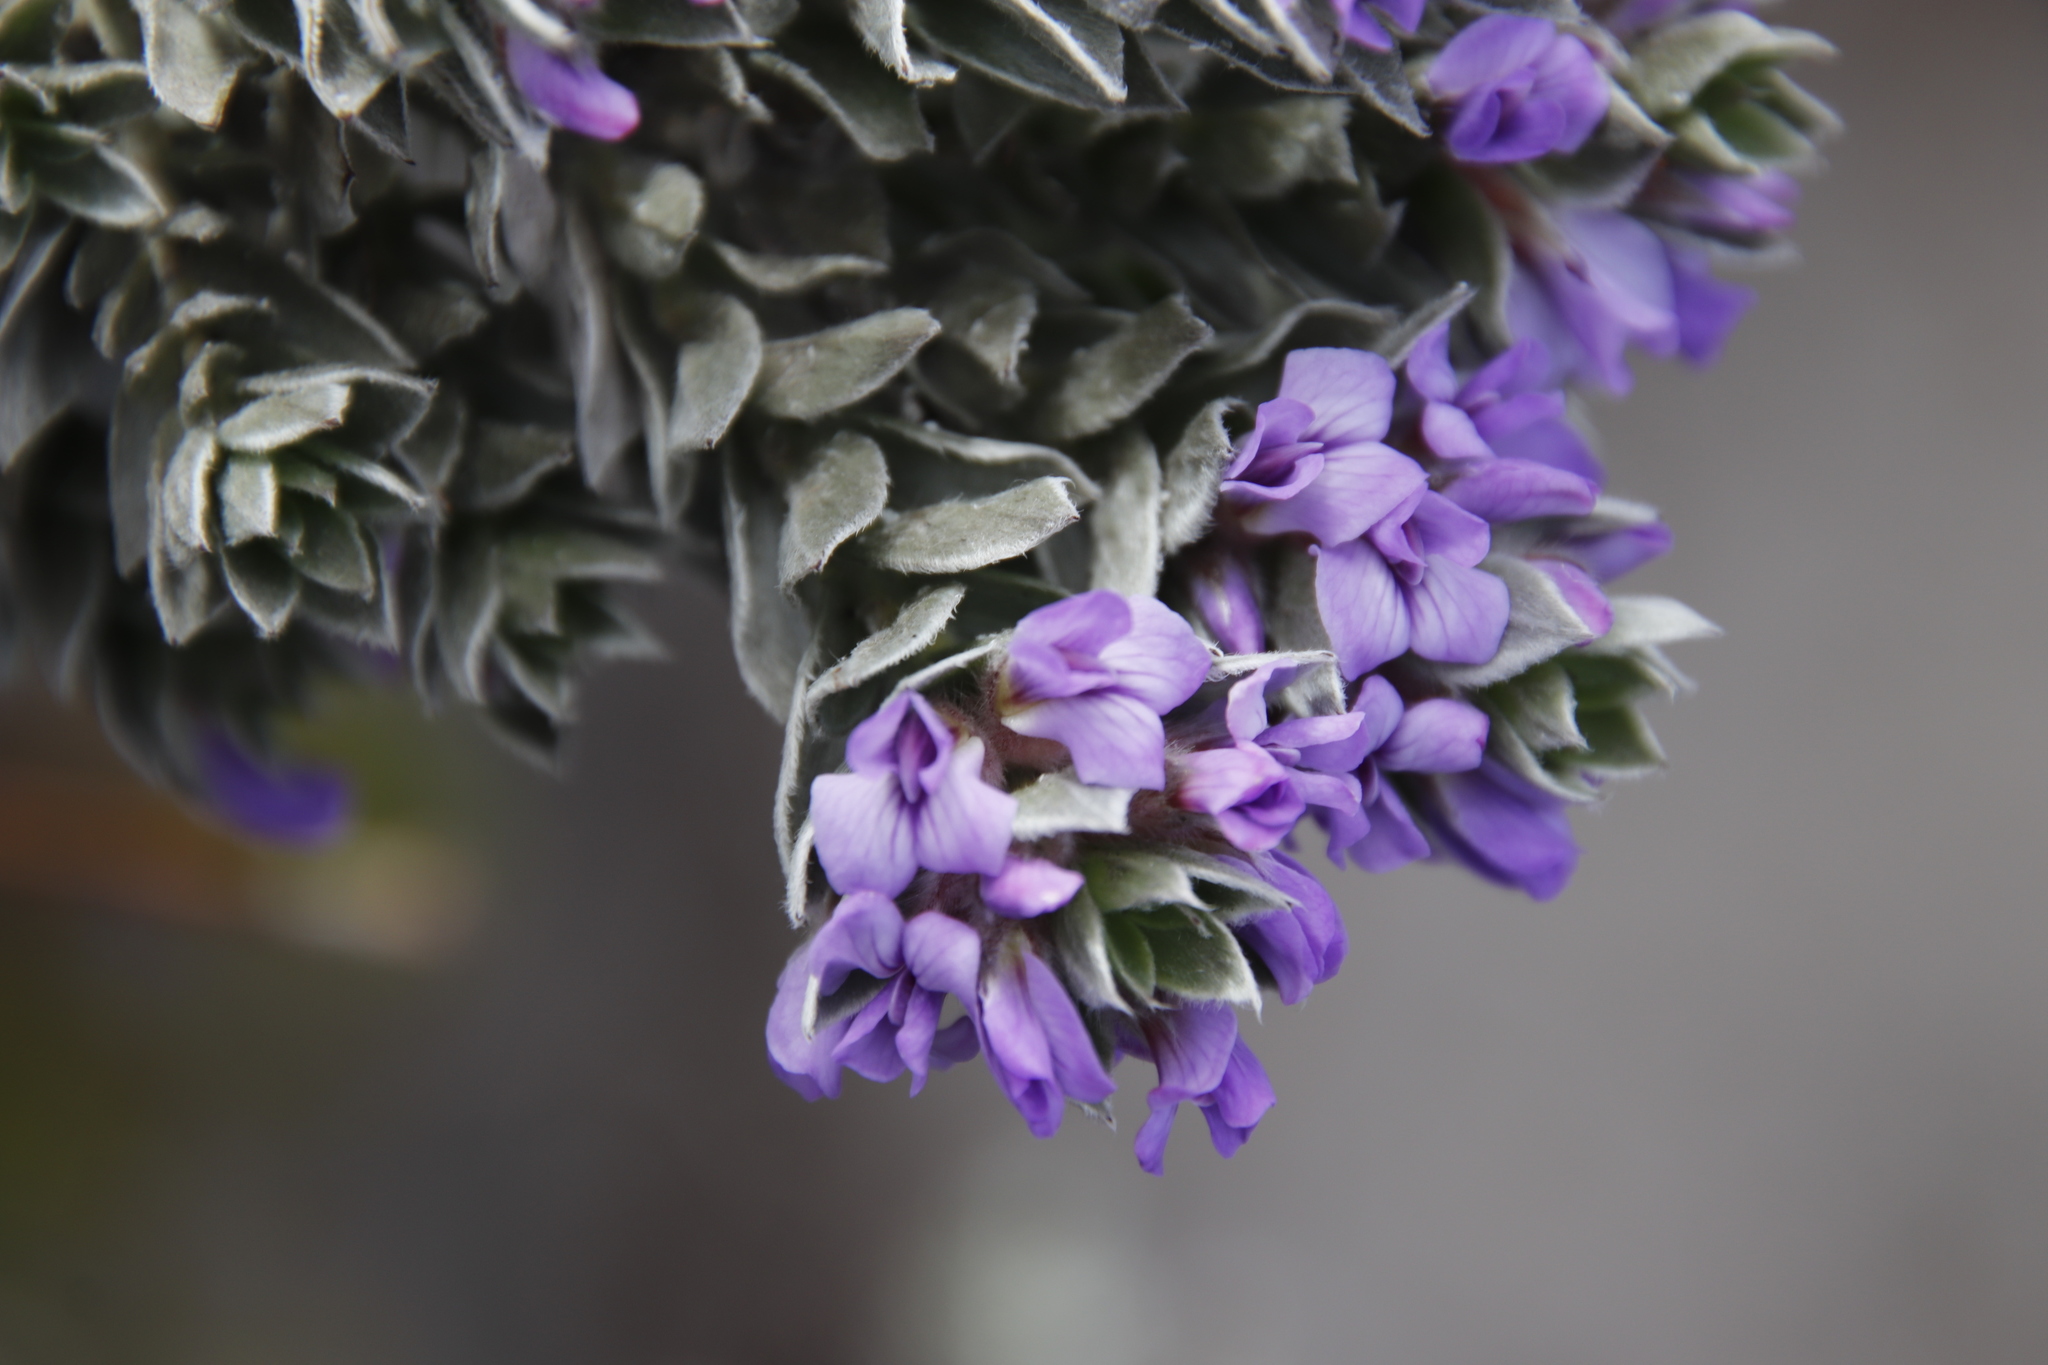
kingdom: Plantae
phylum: Tracheophyta
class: Magnoliopsida
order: Fabales
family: Fabaceae
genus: Amphithalea
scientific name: Amphithalea imbricata
